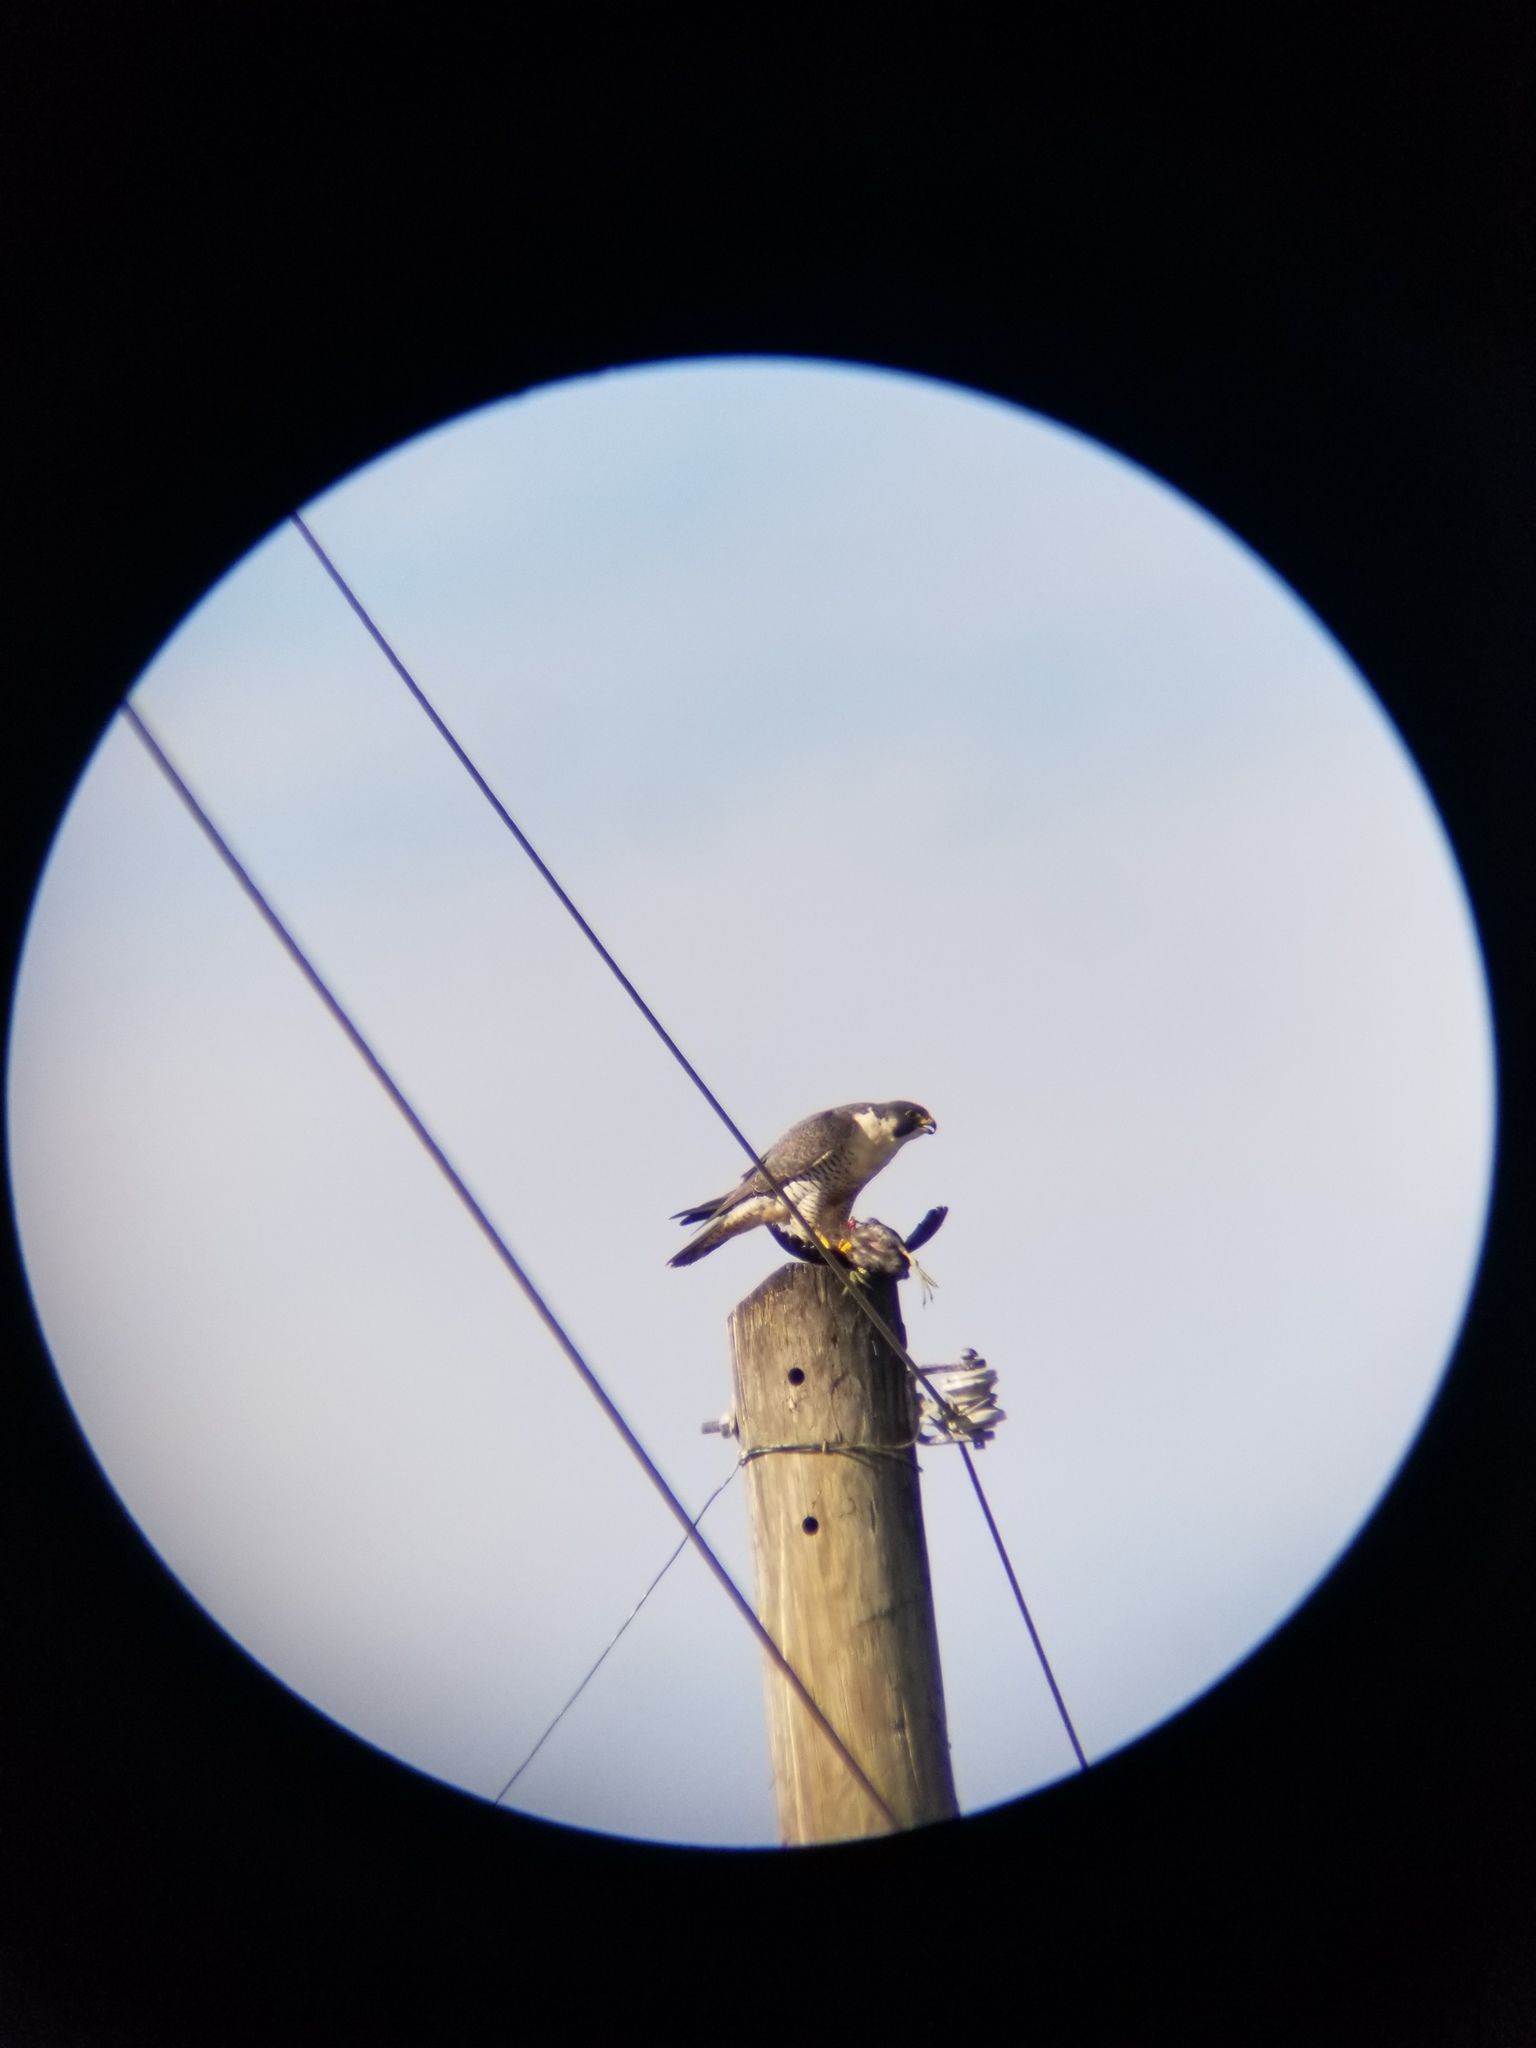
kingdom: Animalia
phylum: Chordata
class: Aves
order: Falconiformes
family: Falconidae
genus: Falco
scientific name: Falco peregrinus
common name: Peregrine falcon
